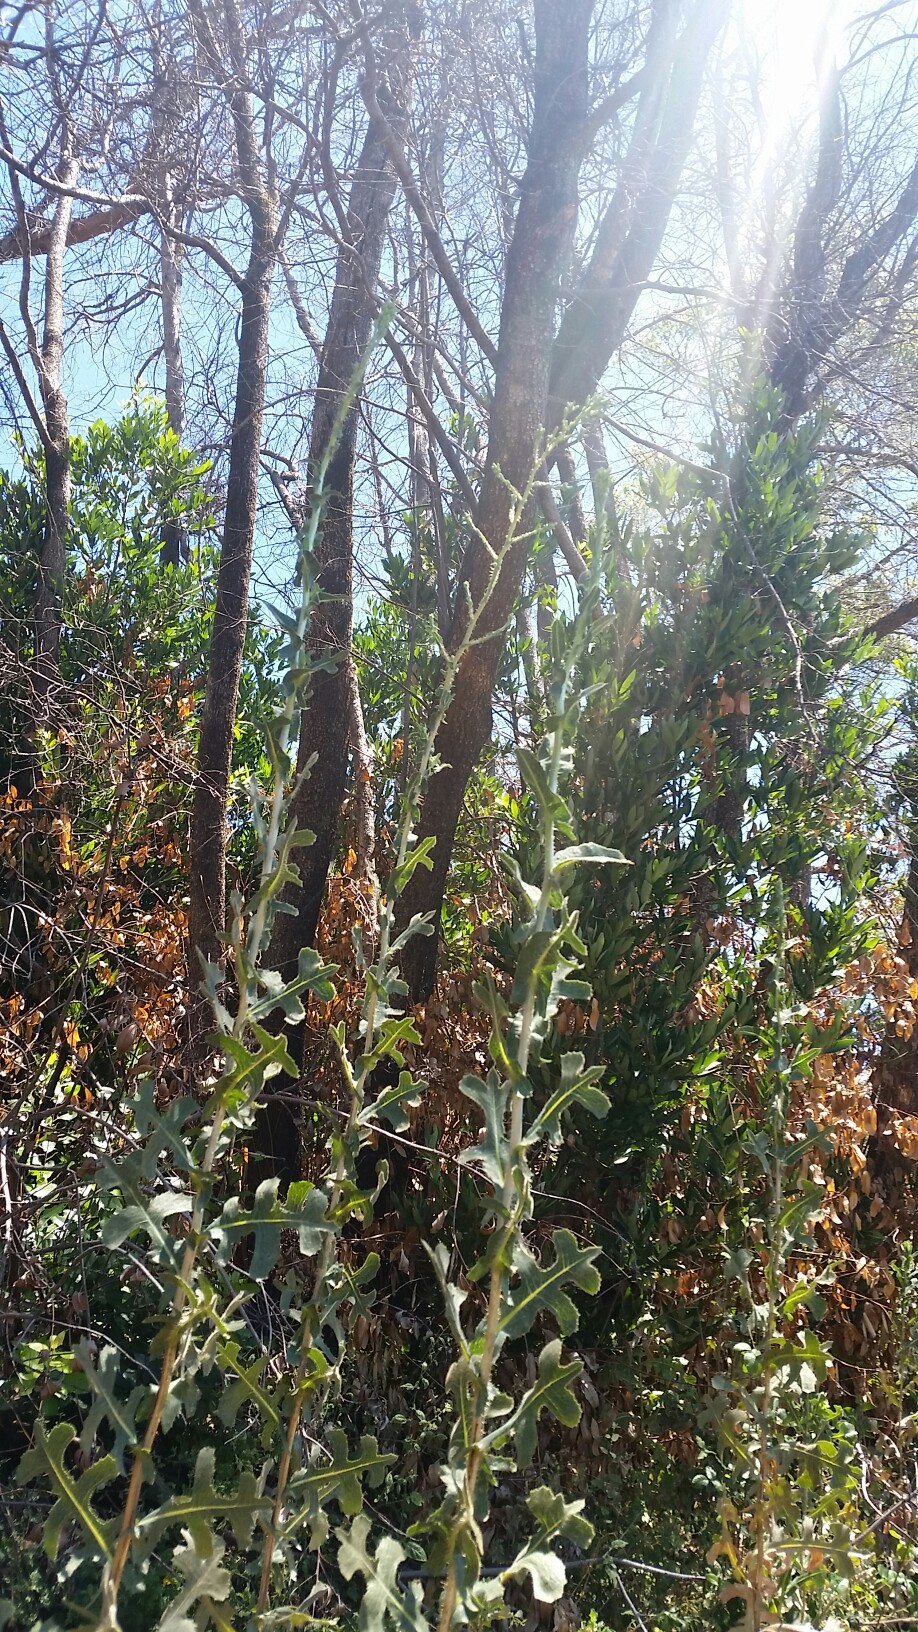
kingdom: Plantae
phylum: Tracheophyta
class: Magnoliopsida
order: Asterales
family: Asteraceae
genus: Lactuca
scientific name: Lactuca serriola
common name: Prickly lettuce
